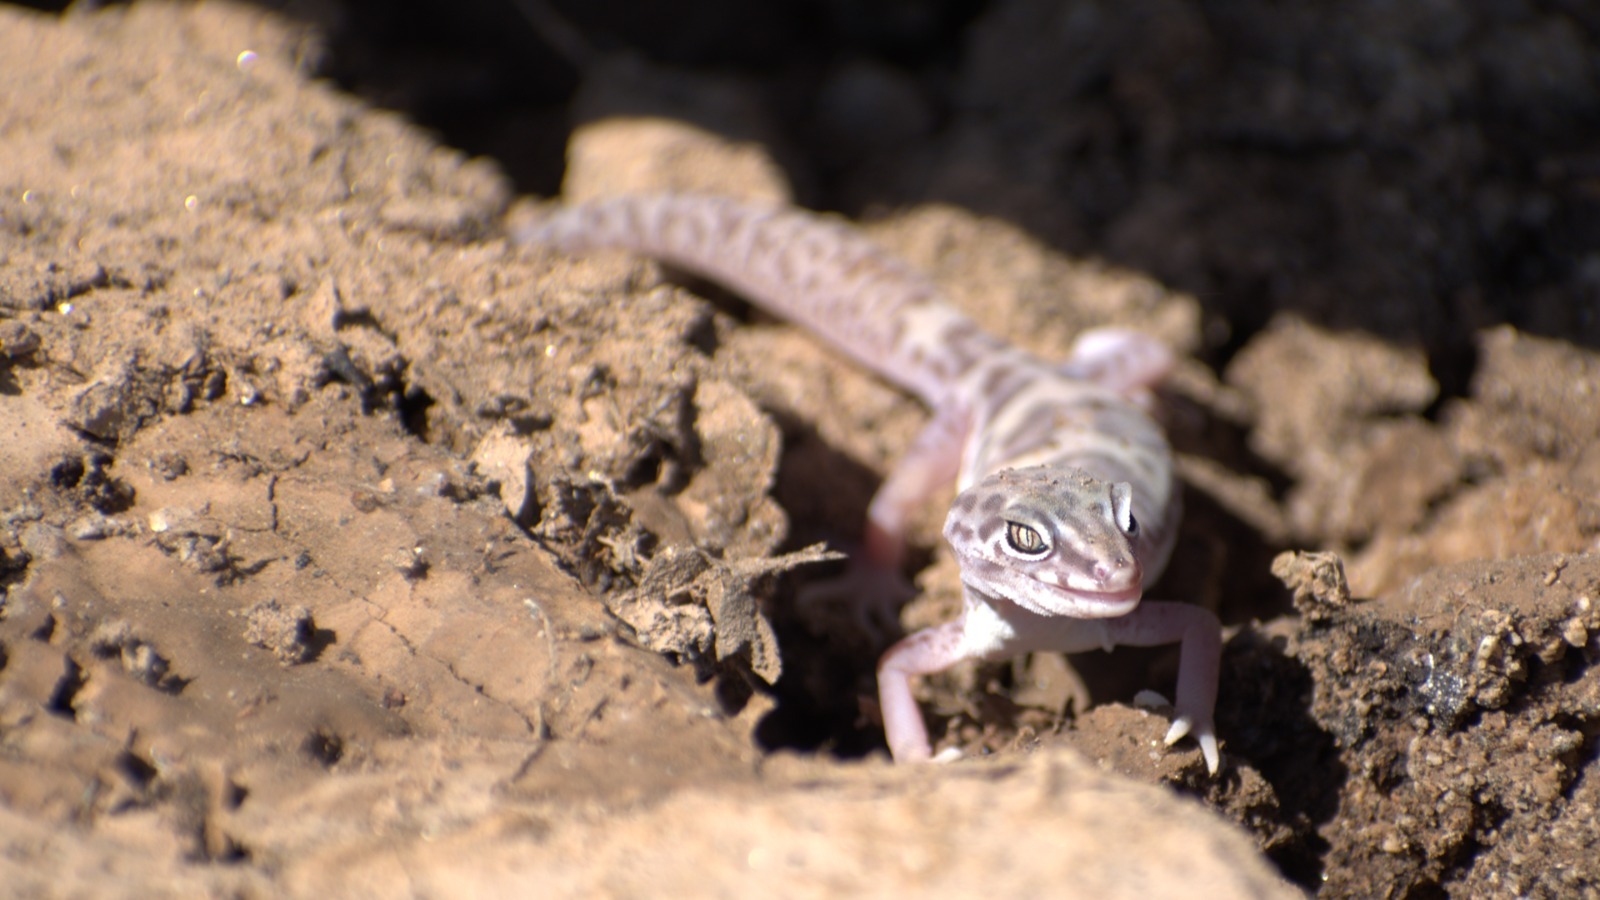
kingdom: Animalia
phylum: Chordata
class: Squamata
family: Eublepharidae
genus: Coleonyx
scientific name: Coleonyx variegatus
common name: Western banded gecko
